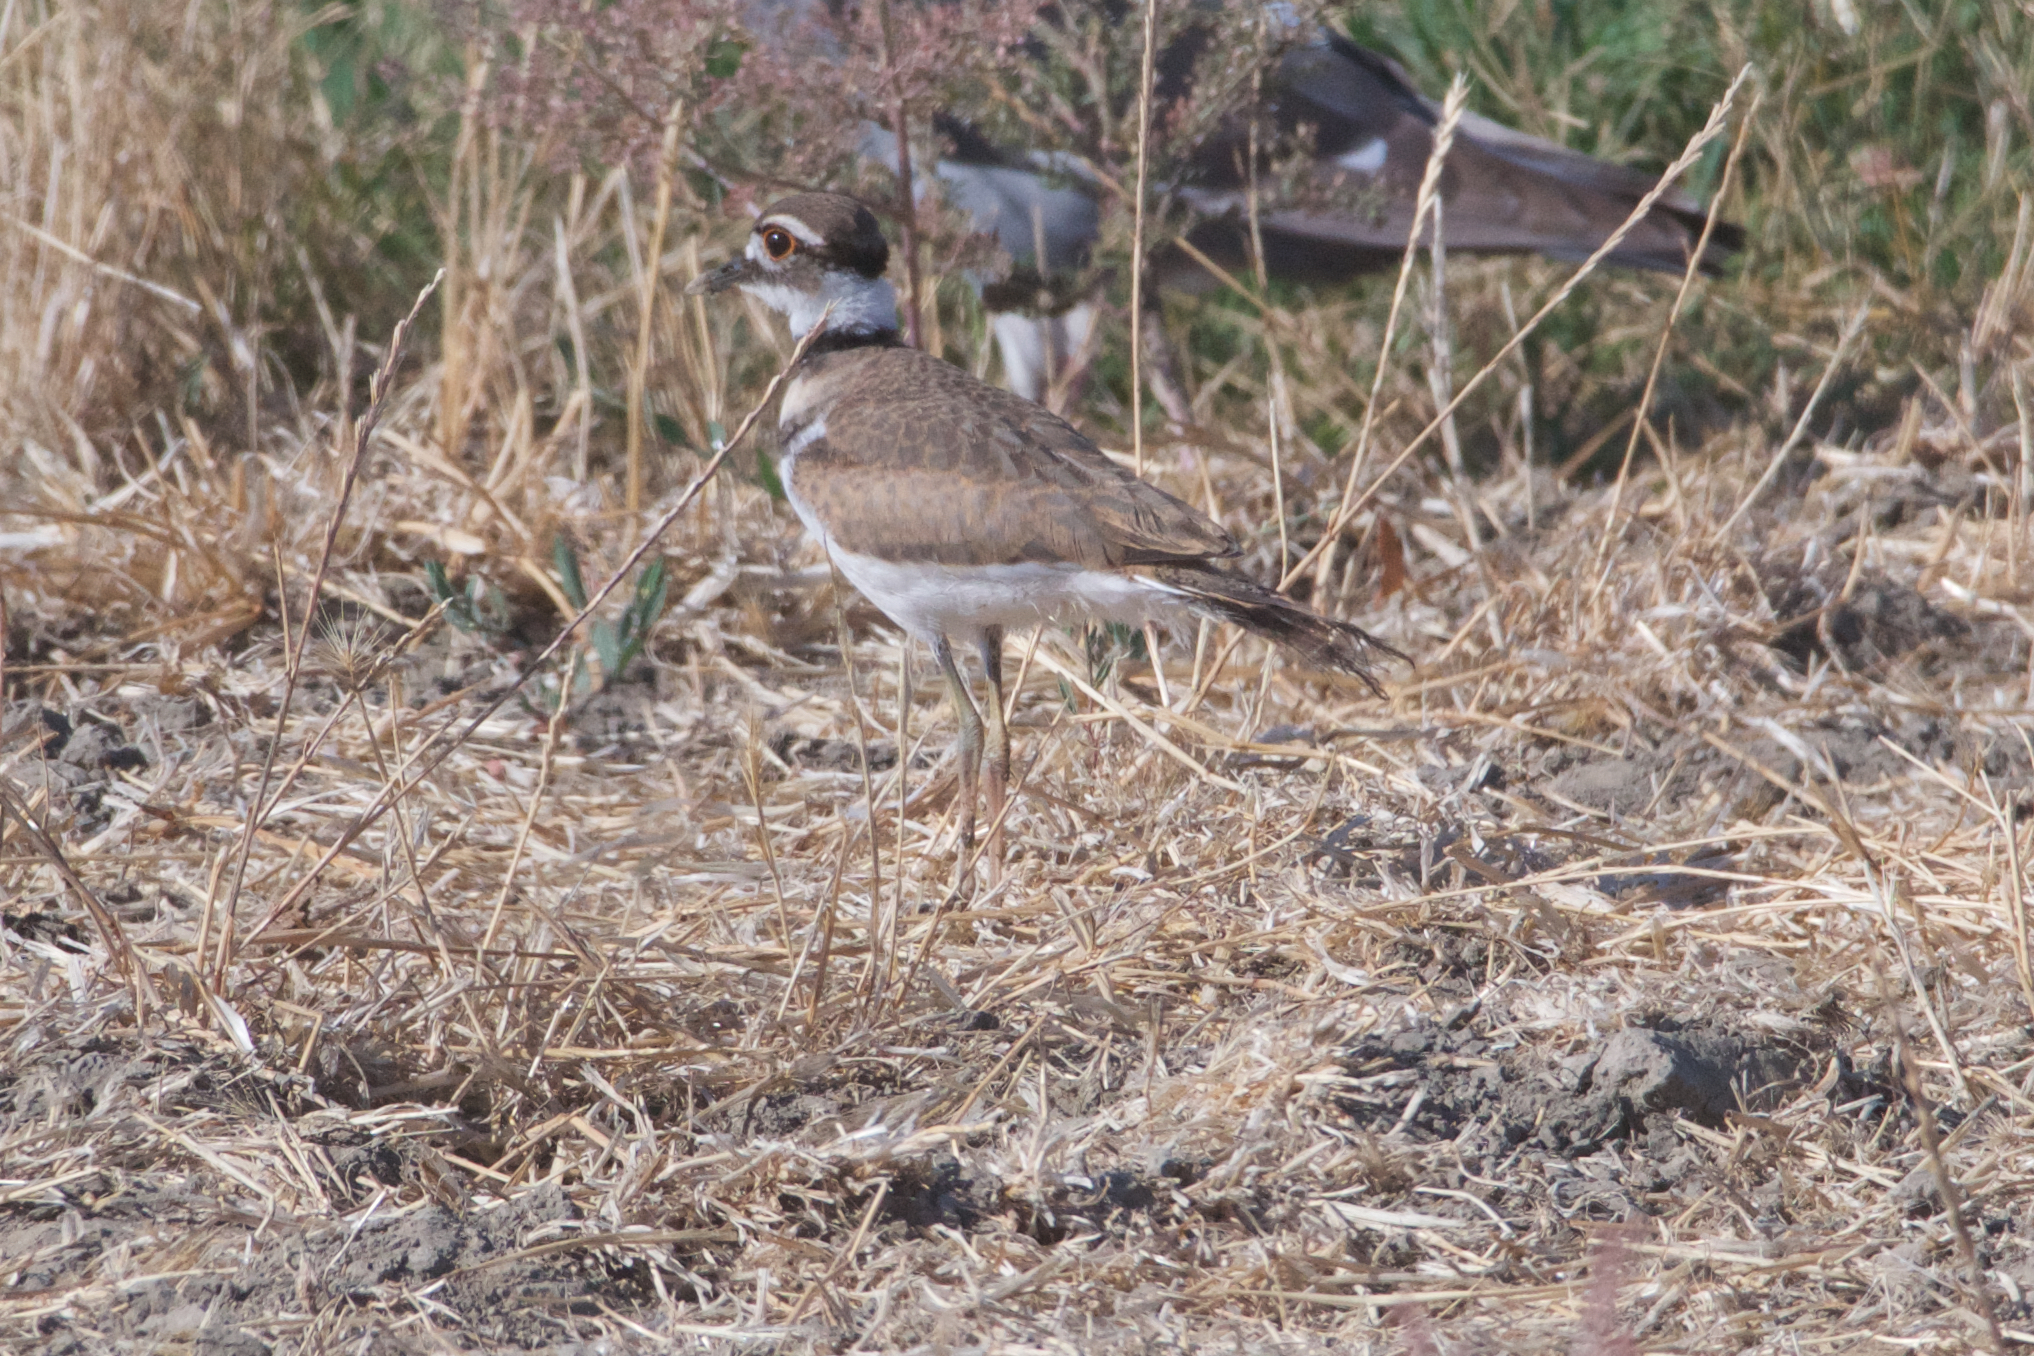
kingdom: Animalia
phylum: Chordata
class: Aves
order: Charadriiformes
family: Charadriidae
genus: Charadrius
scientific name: Charadrius vociferus
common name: Killdeer
